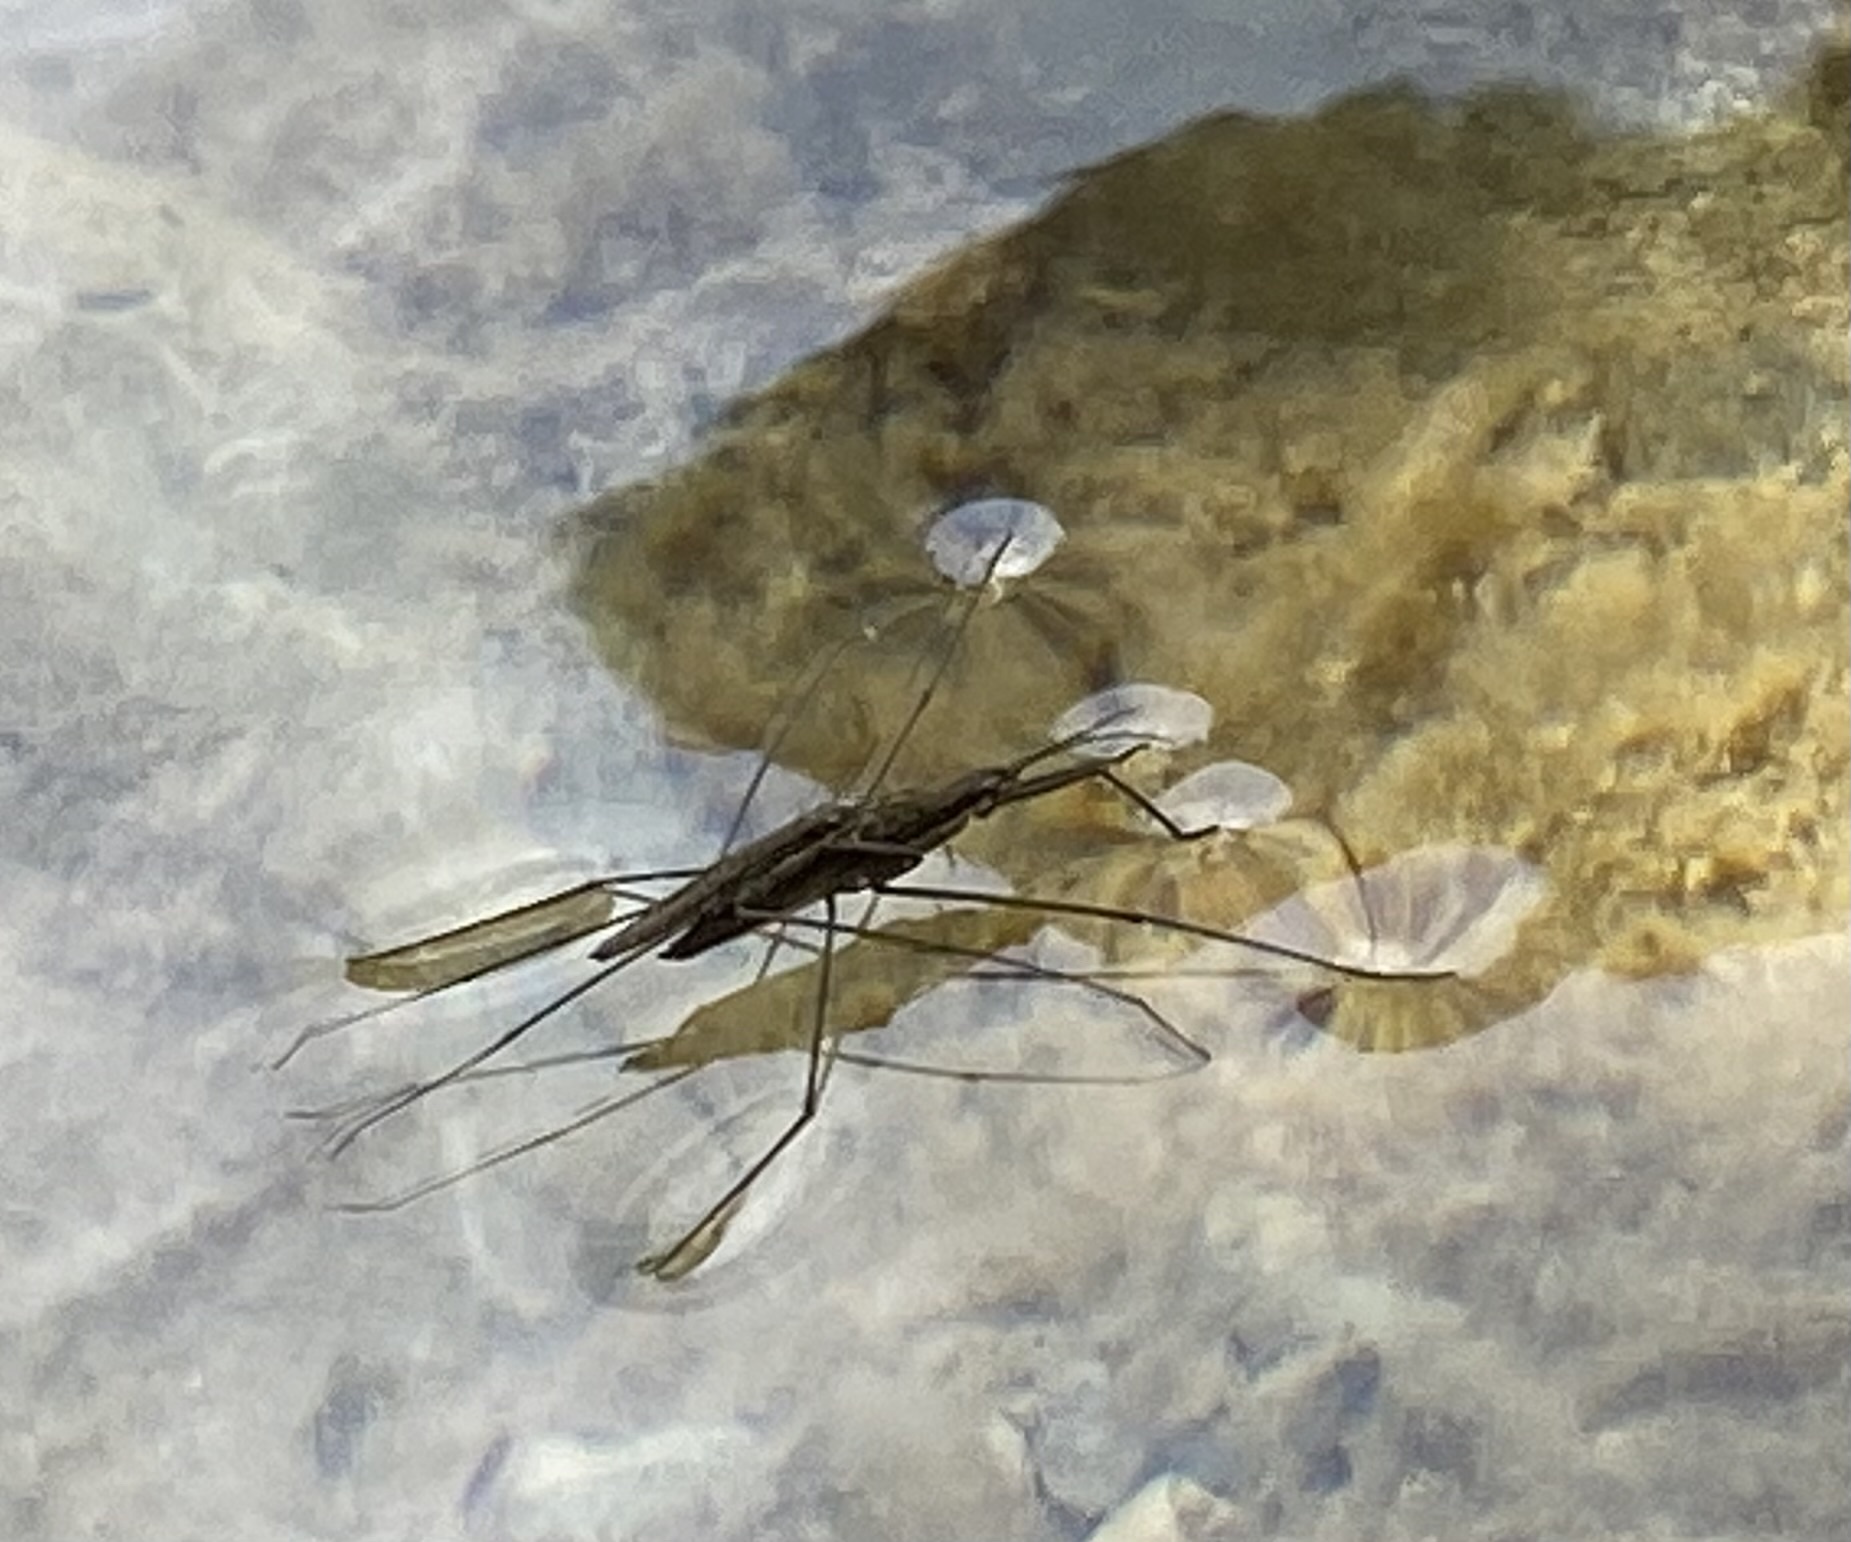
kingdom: Animalia
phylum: Arthropoda
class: Insecta
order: Hemiptera
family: Gerridae
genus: Aquarius
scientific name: Aquarius najas
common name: River skater
